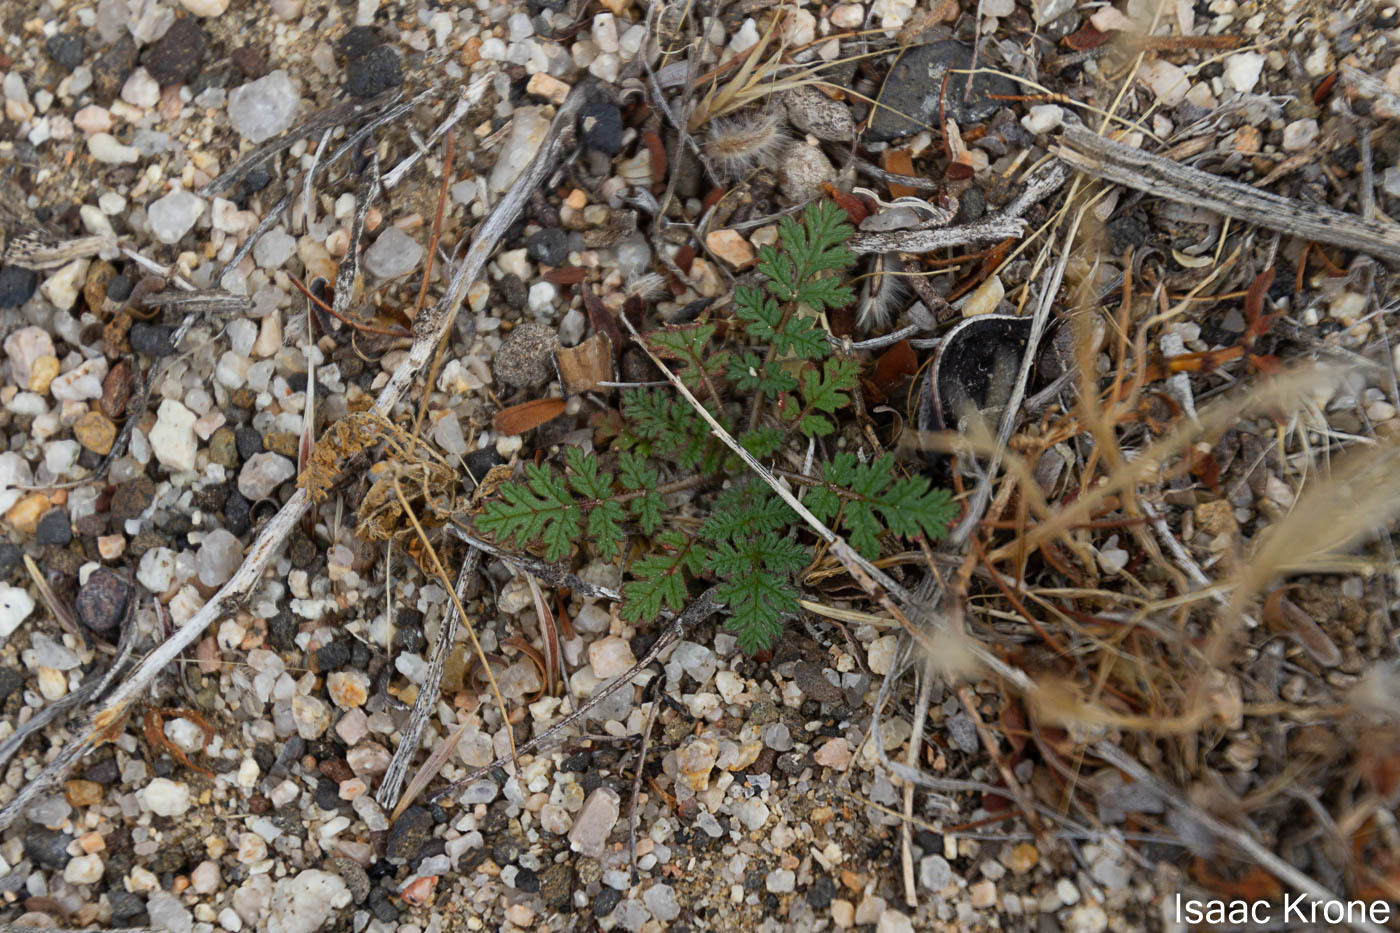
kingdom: Plantae
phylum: Tracheophyta
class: Magnoliopsida
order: Geraniales
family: Geraniaceae
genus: Erodium
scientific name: Erodium cicutarium
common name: Common stork's-bill
